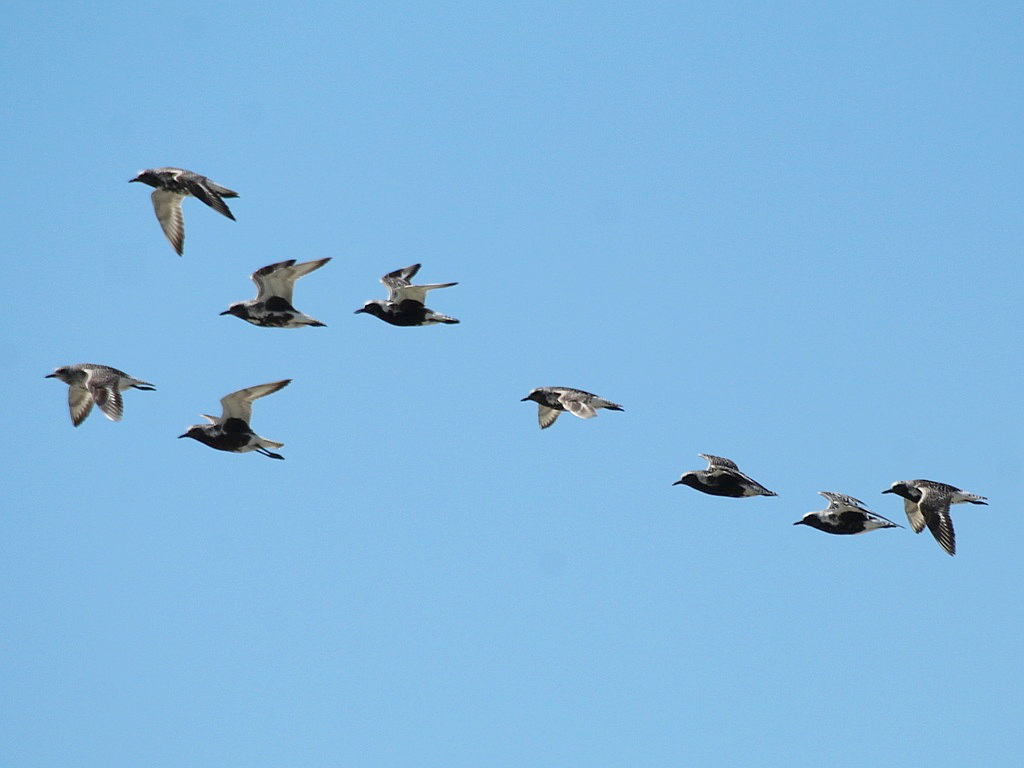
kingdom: Animalia
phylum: Chordata
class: Aves
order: Charadriiformes
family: Charadriidae
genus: Pluvialis
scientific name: Pluvialis squatarola
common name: Grey plover
